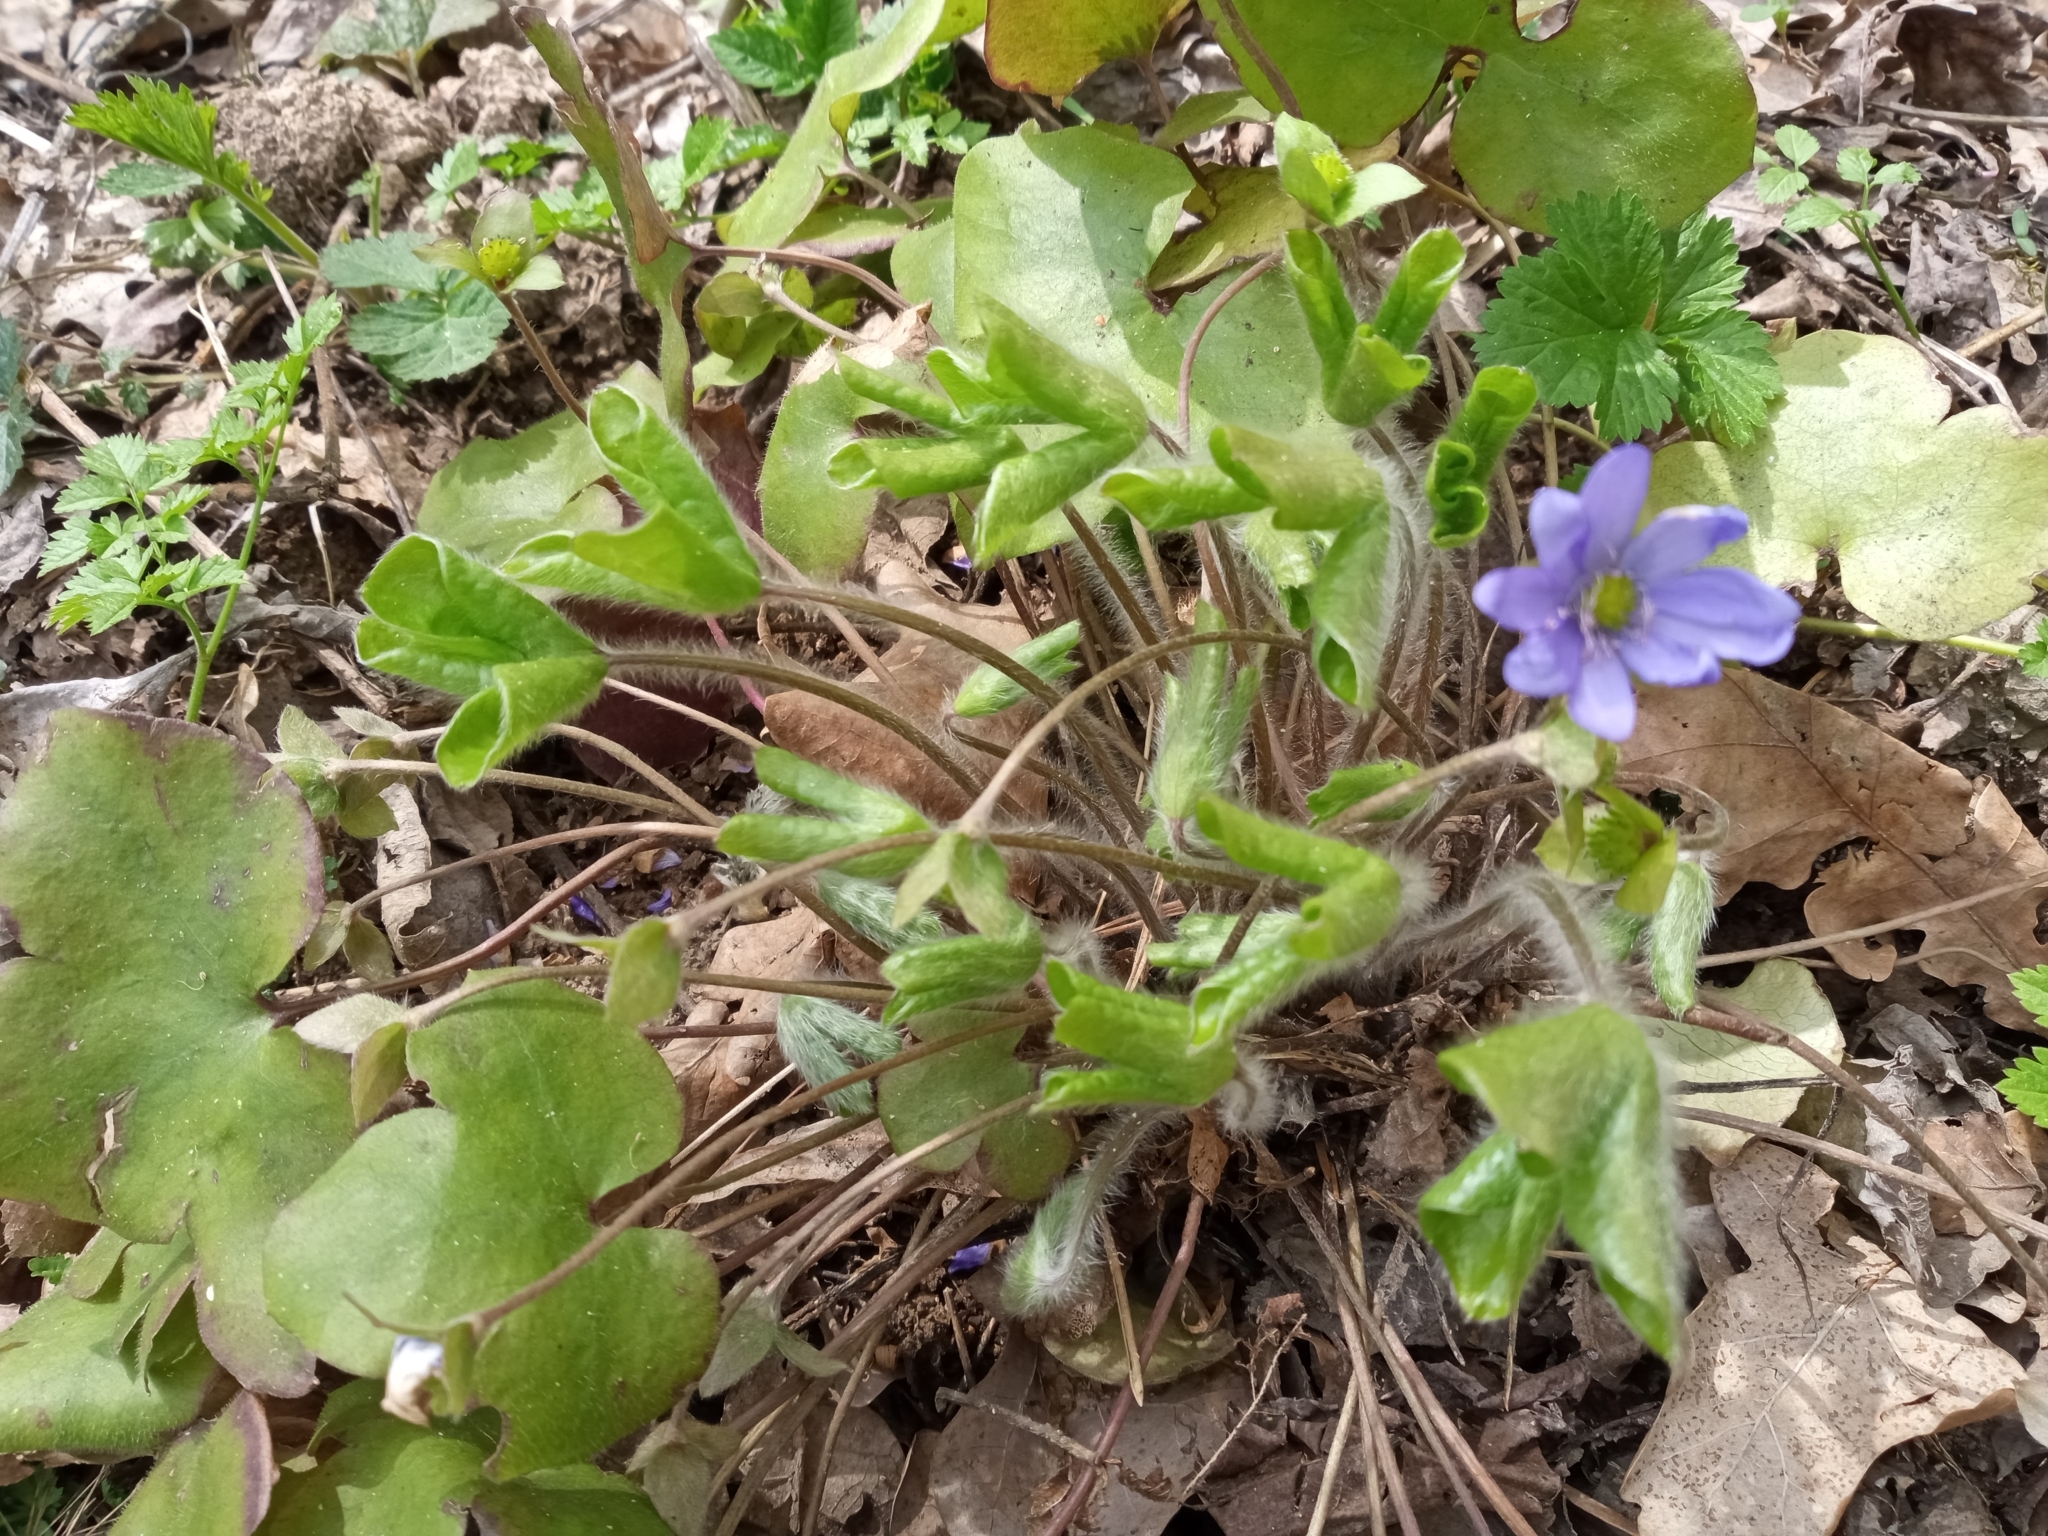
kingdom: Plantae
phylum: Tracheophyta
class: Magnoliopsida
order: Ranunculales
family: Ranunculaceae
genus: Hepatica
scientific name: Hepatica nobilis
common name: Liverleaf
